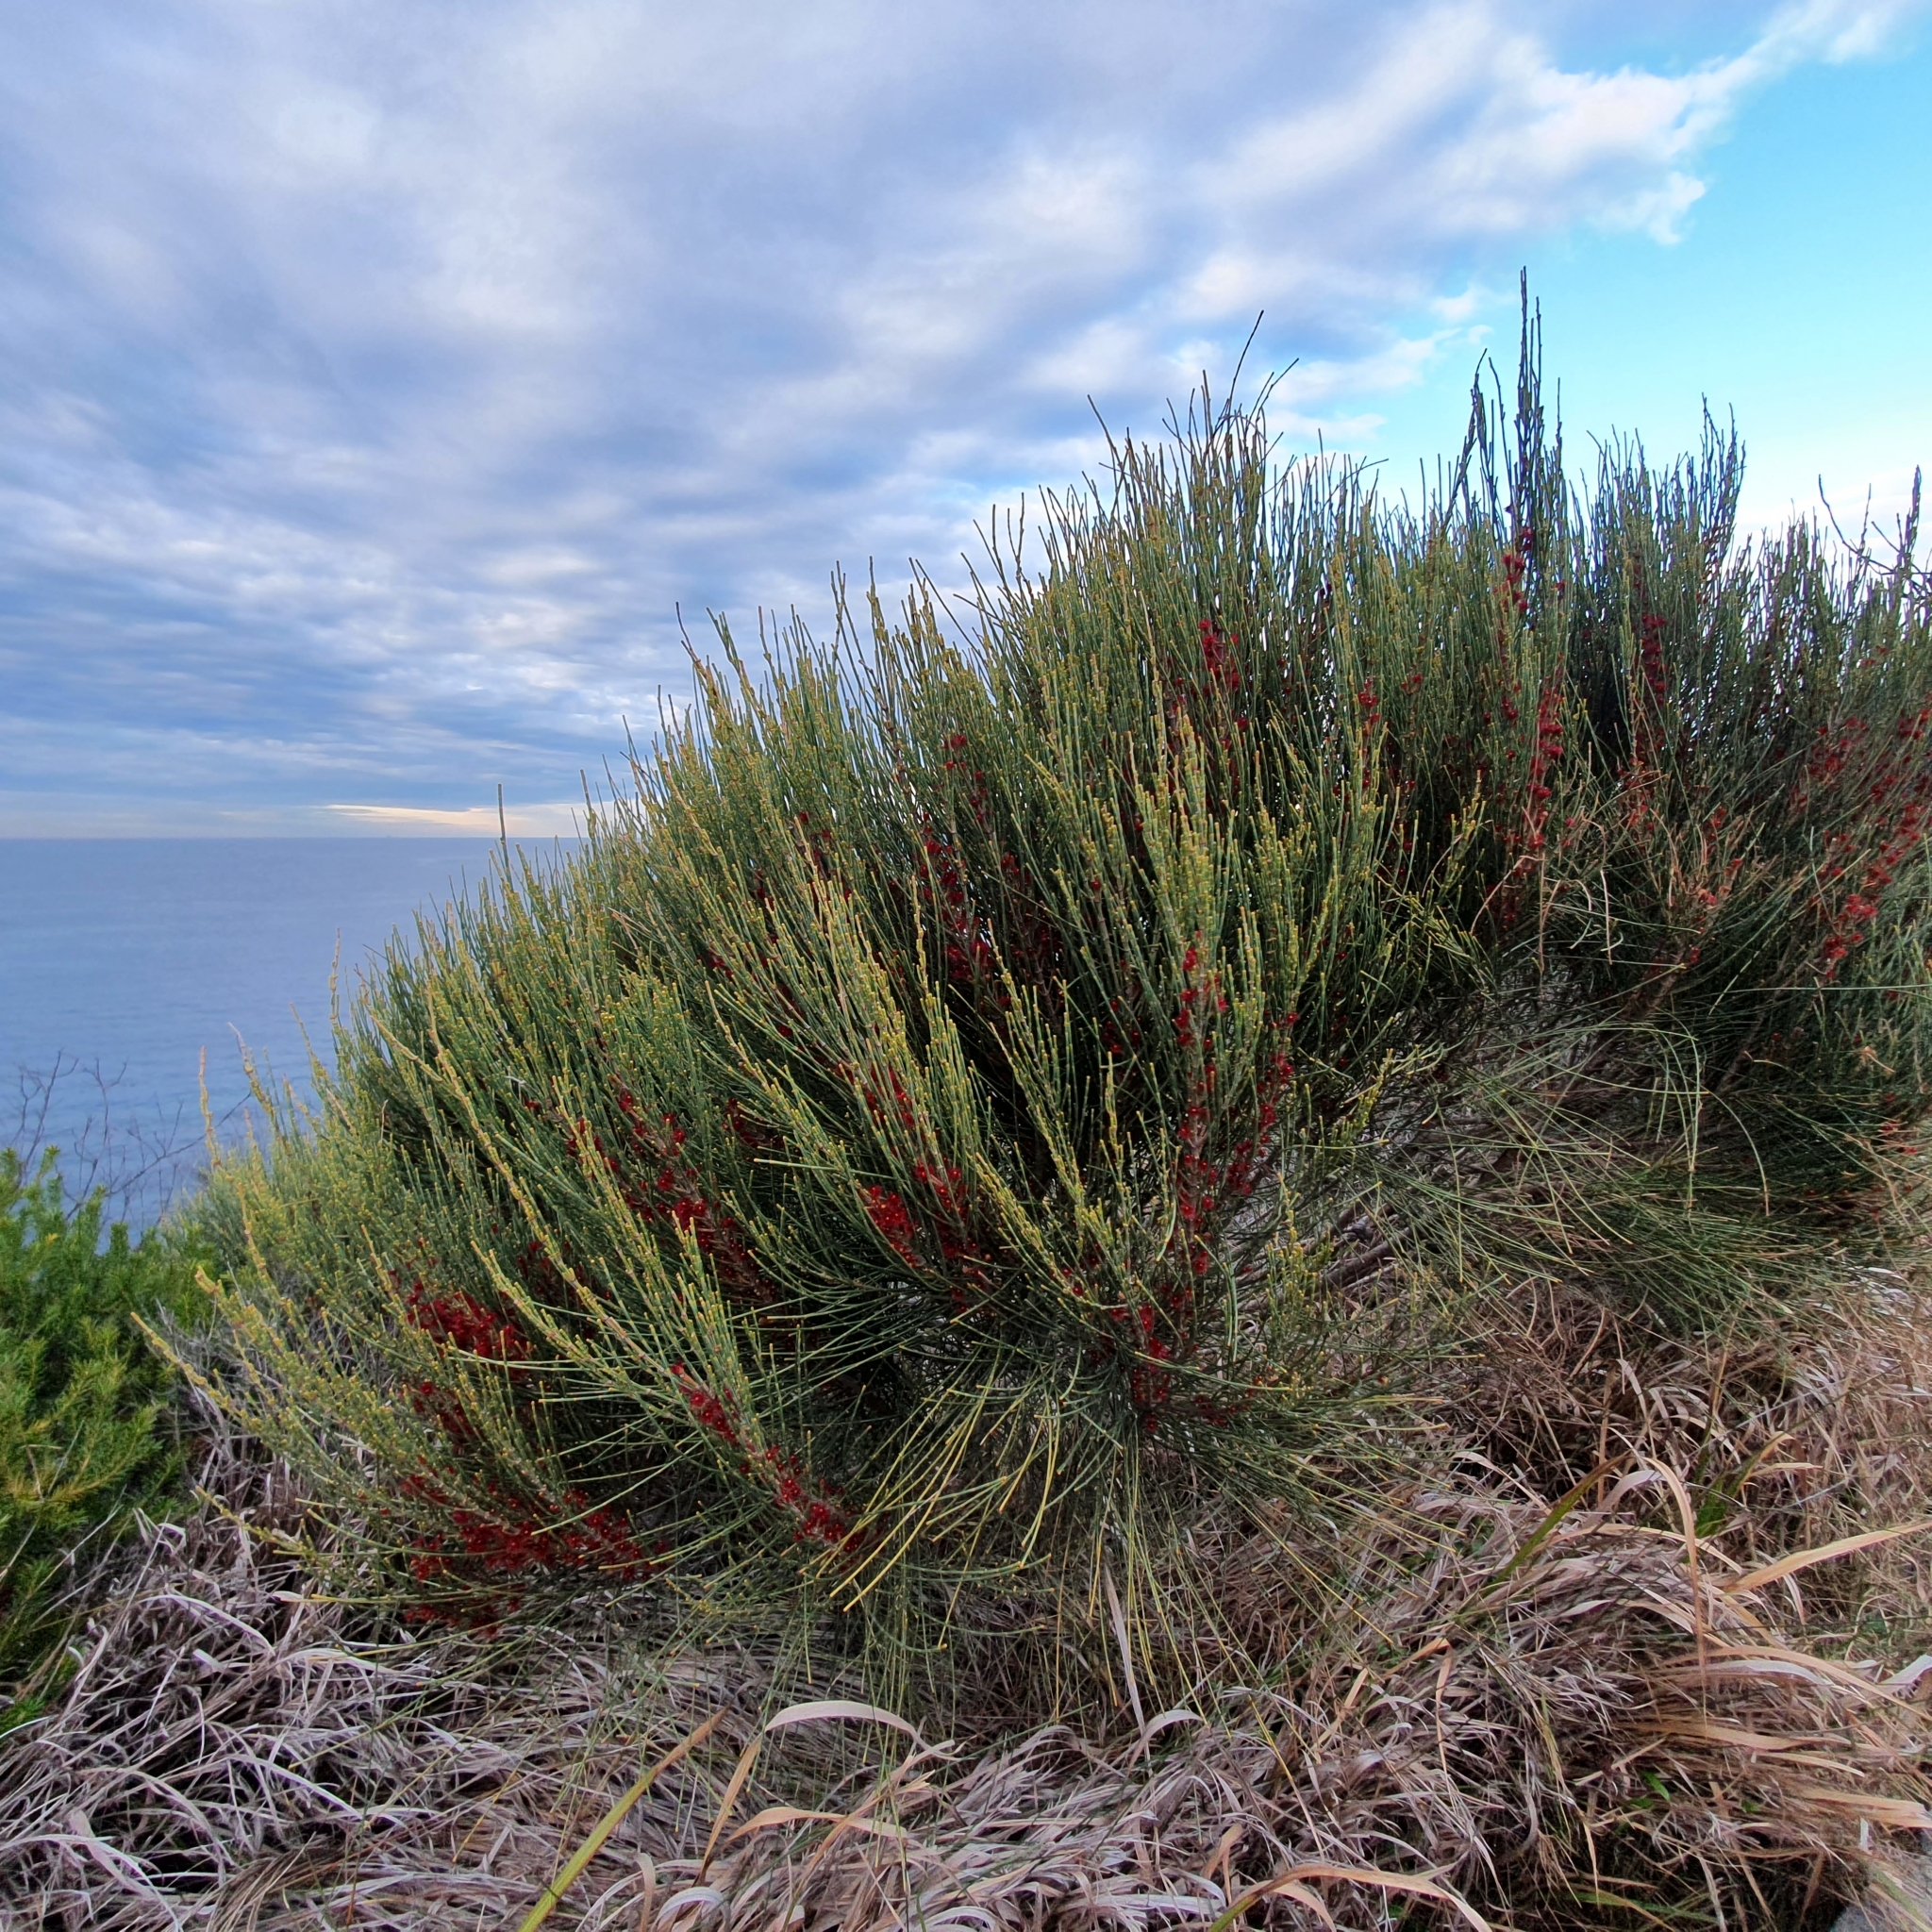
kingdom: Plantae
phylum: Tracheophyta
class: Magnoliopsida
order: Fagales
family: Casuarinaceae
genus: Allocasuarina
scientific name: Allocasuarina distyla
